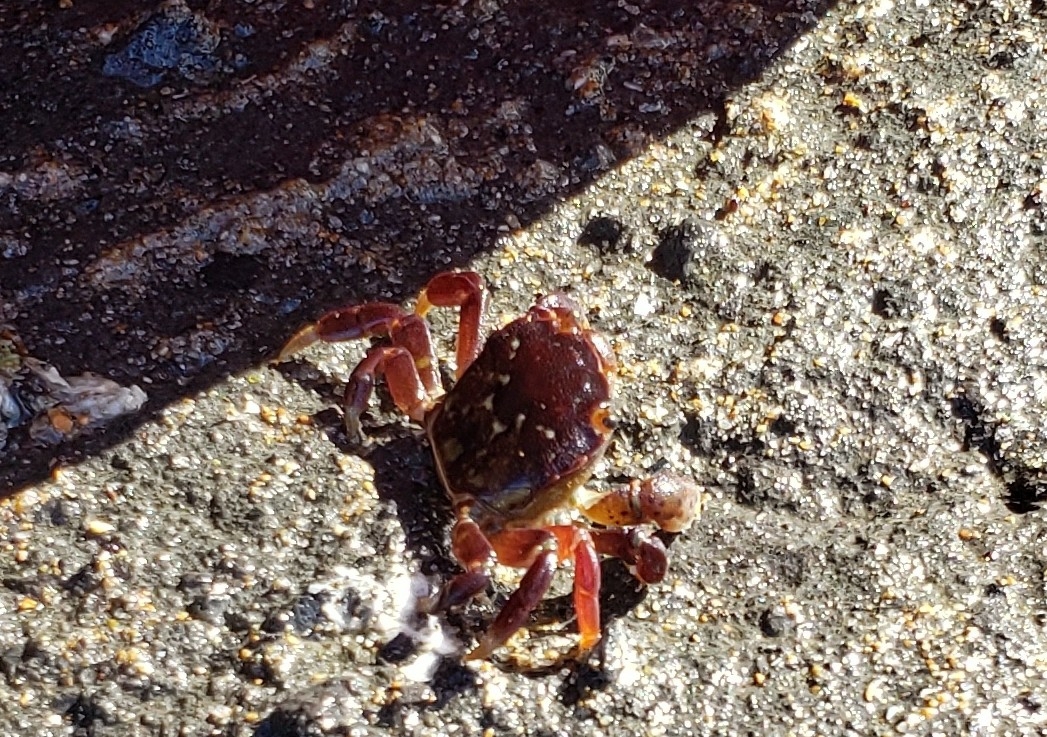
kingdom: Animalia
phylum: Arthropoda
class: Malacostraca
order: Decapoda
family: Varunidae
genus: Hemigrapsus
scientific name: Hemigrapsus nudus
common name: Purple shore crab
